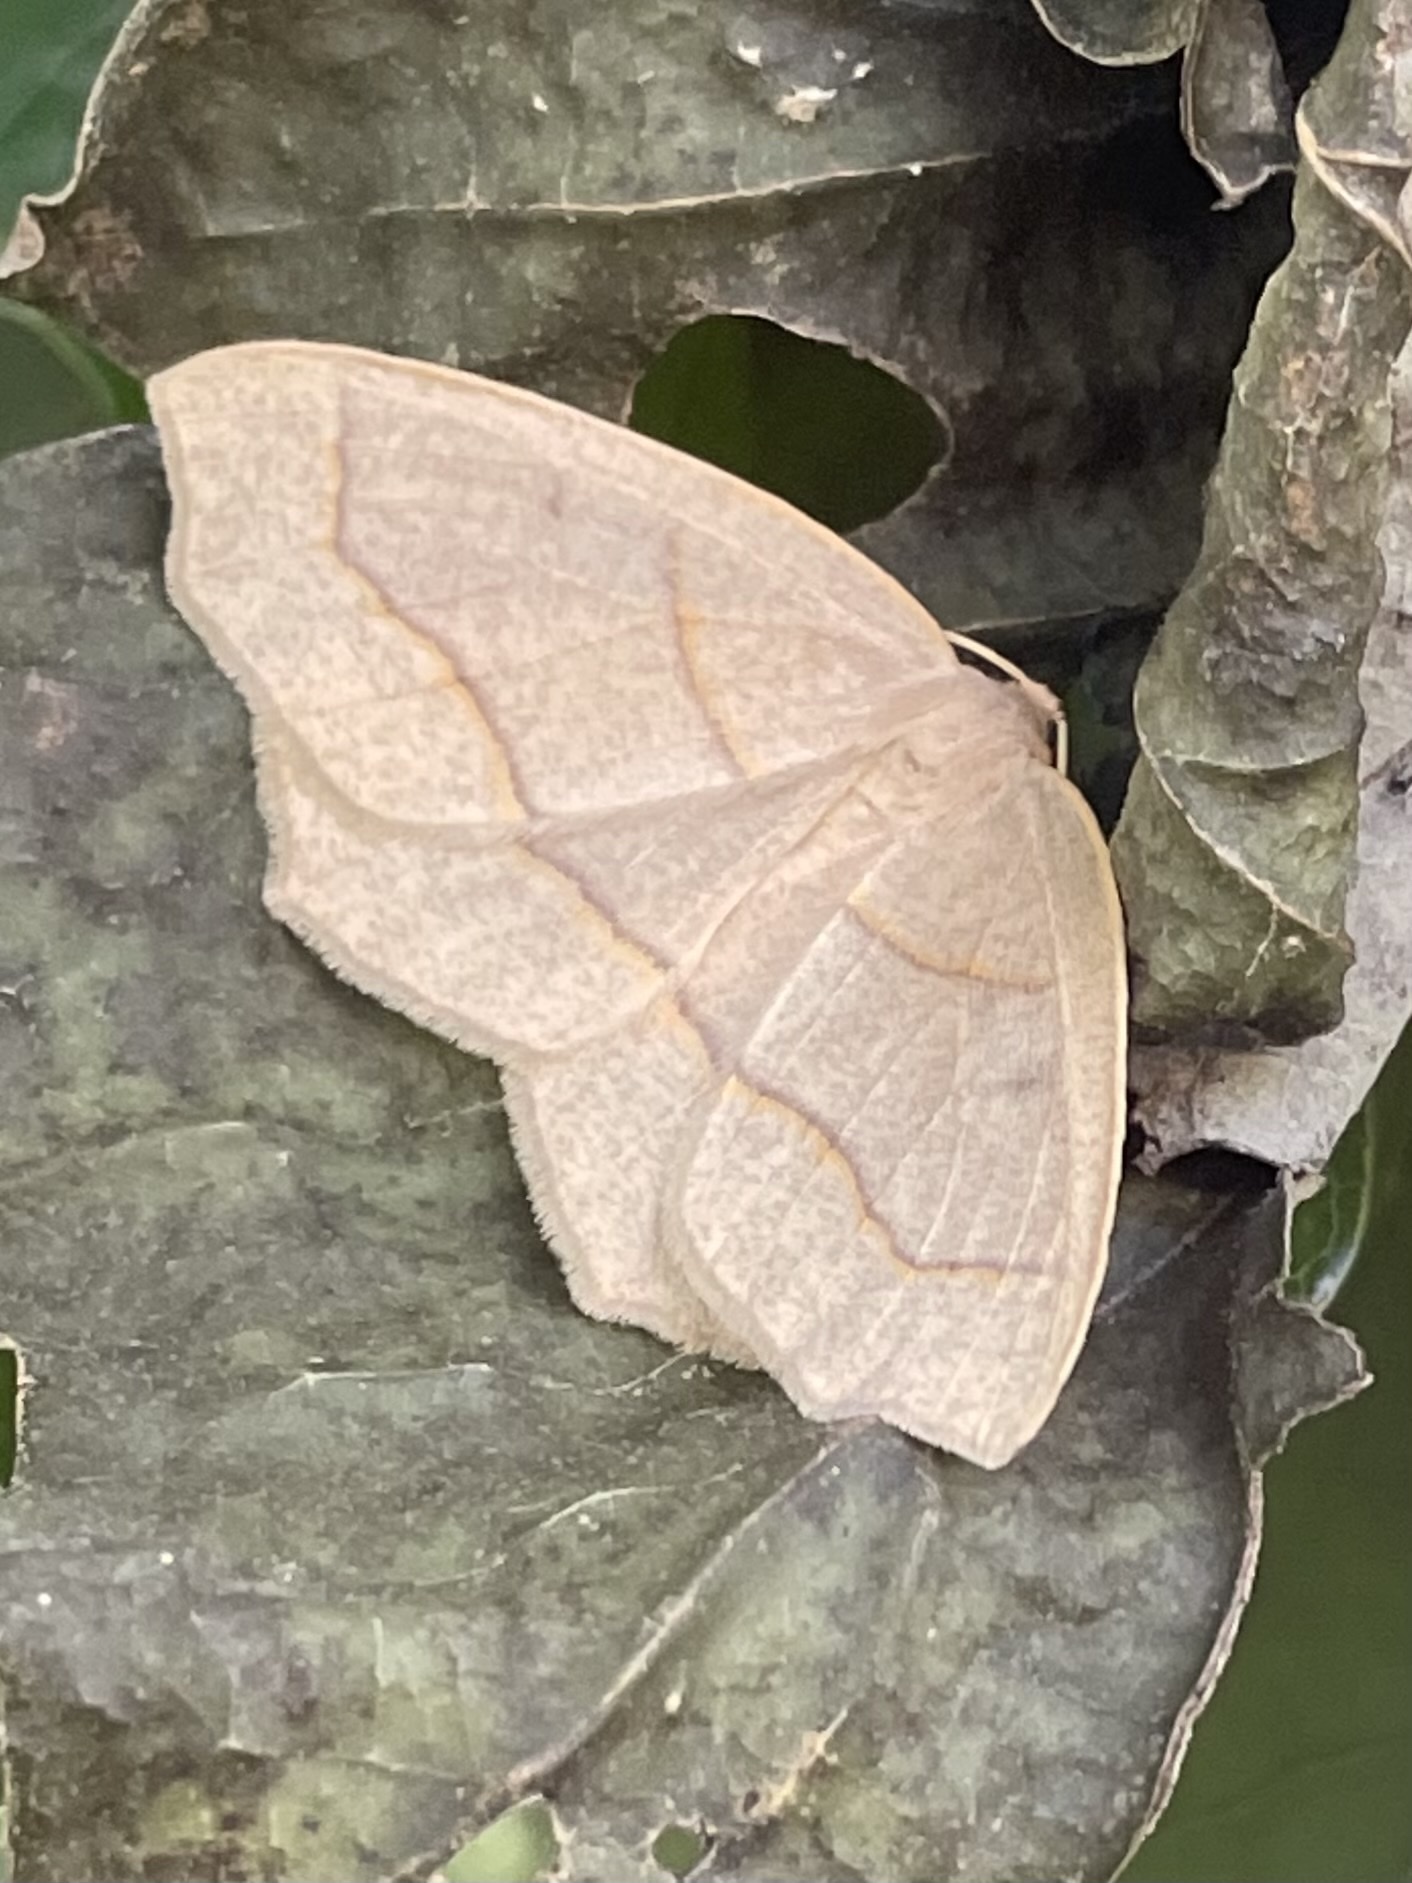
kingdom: Animalia
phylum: Arthropoda
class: Insecta
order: Lepidoptera
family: Geometridae
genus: Lambdina
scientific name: Lambdina fiscellaria
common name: Hemlock looper
